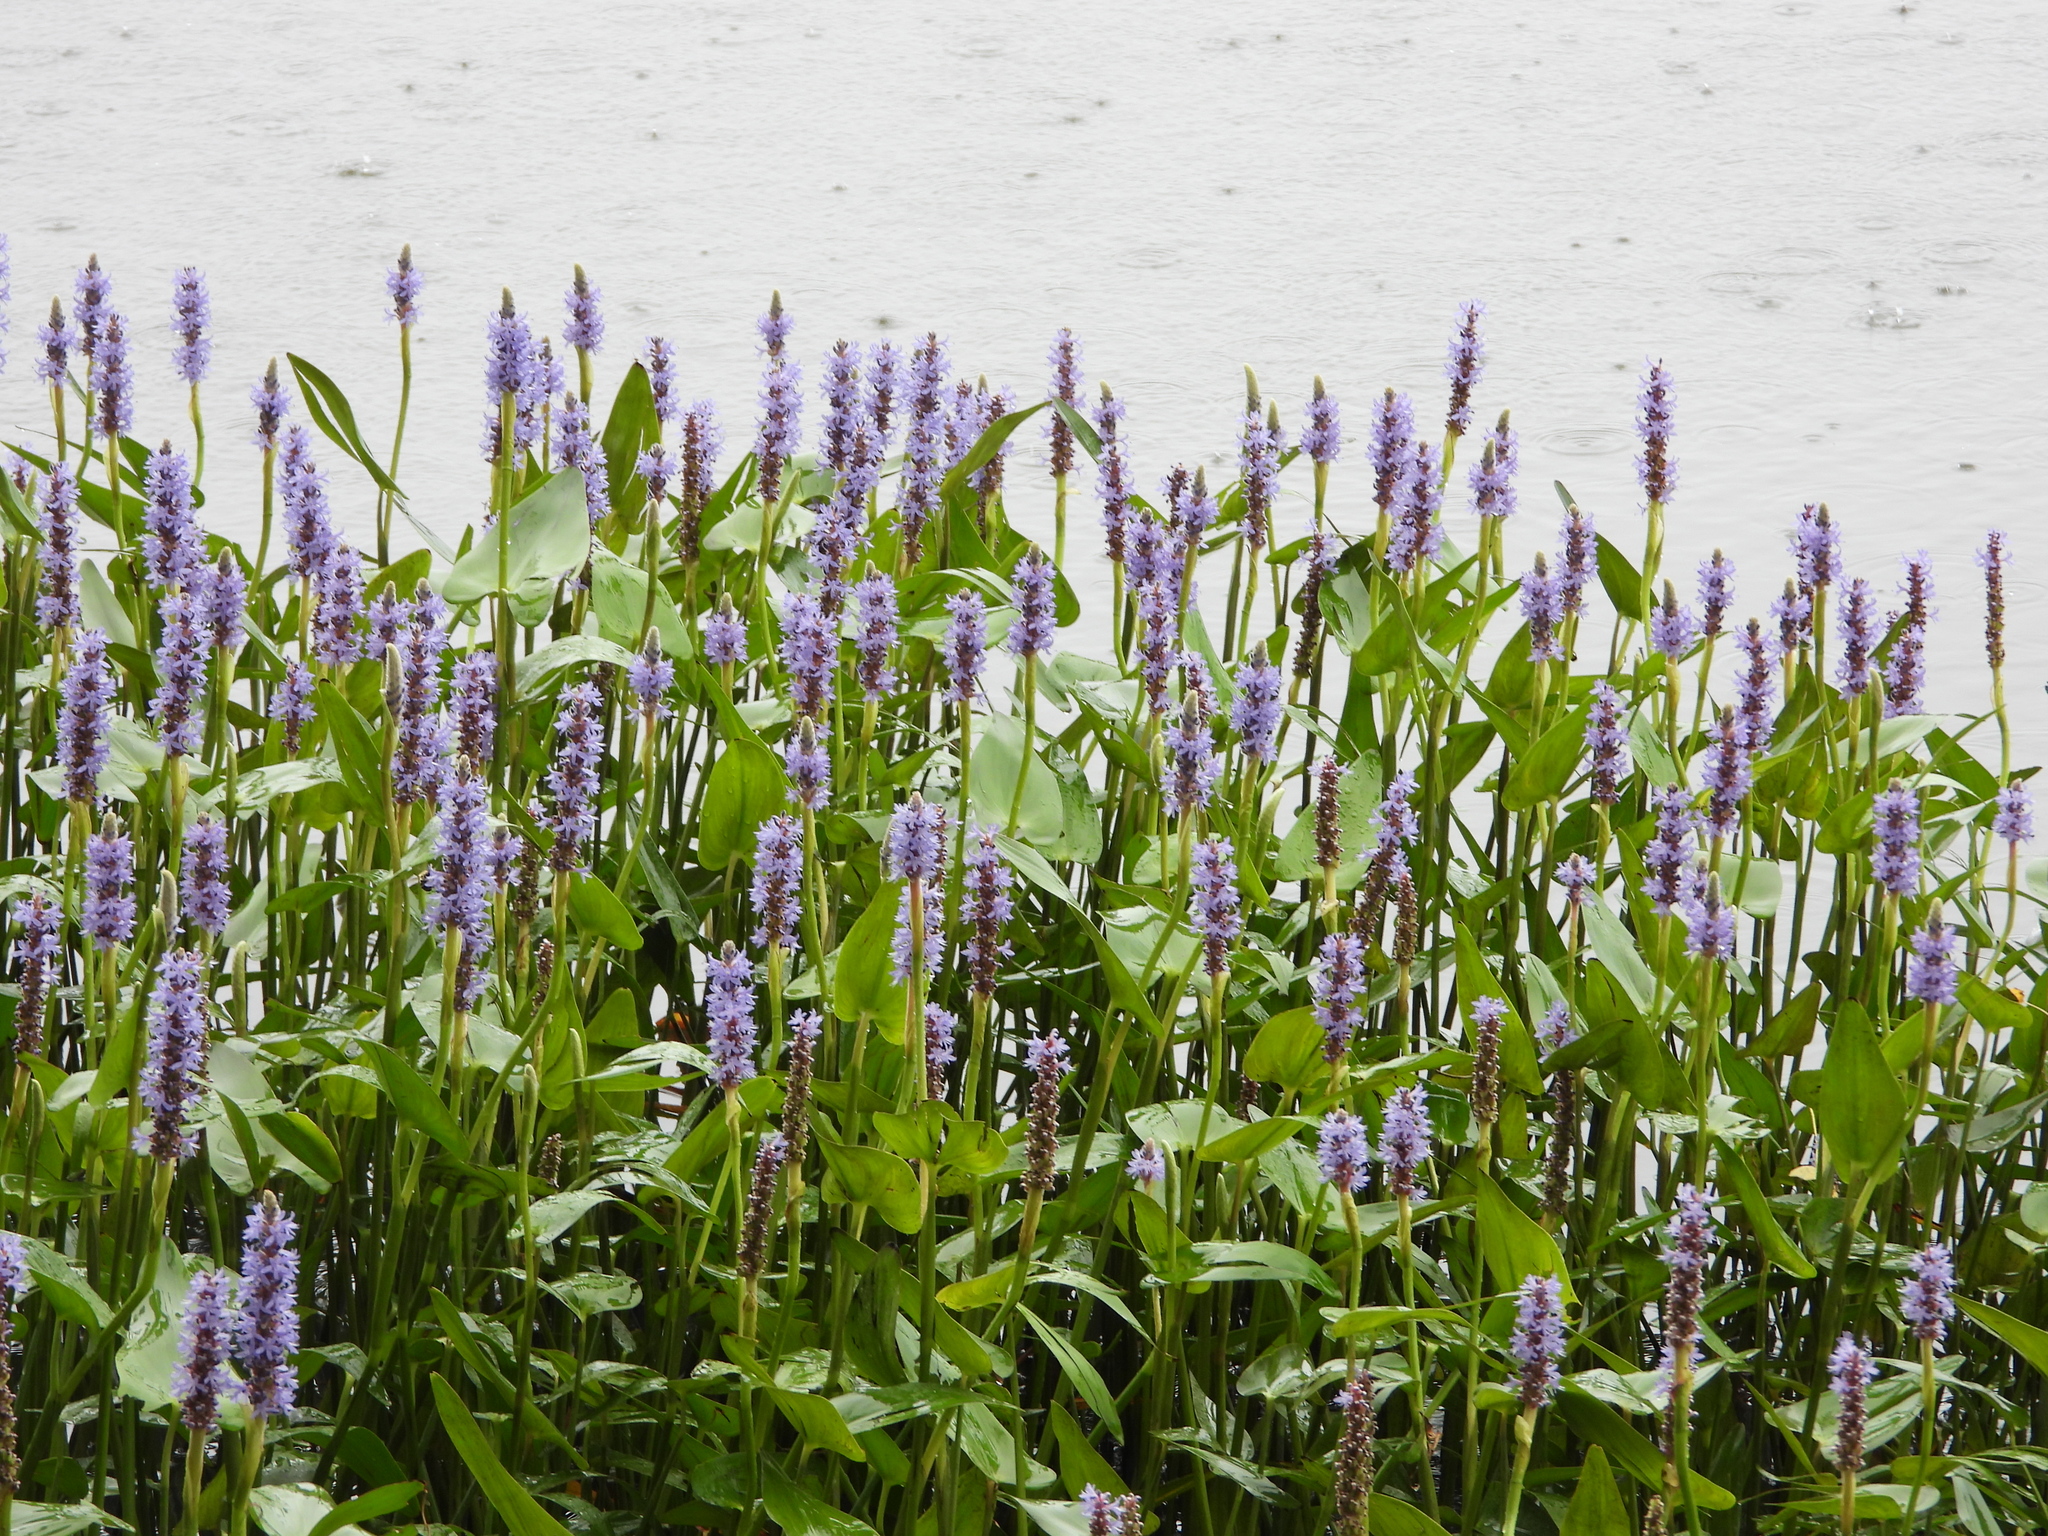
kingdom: Plantae
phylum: Tracheophyta
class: Liliopsida
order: Commelinales
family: Pontederiaceae
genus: Pontederia
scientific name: Pontederia cordata
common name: Pickerelweed
